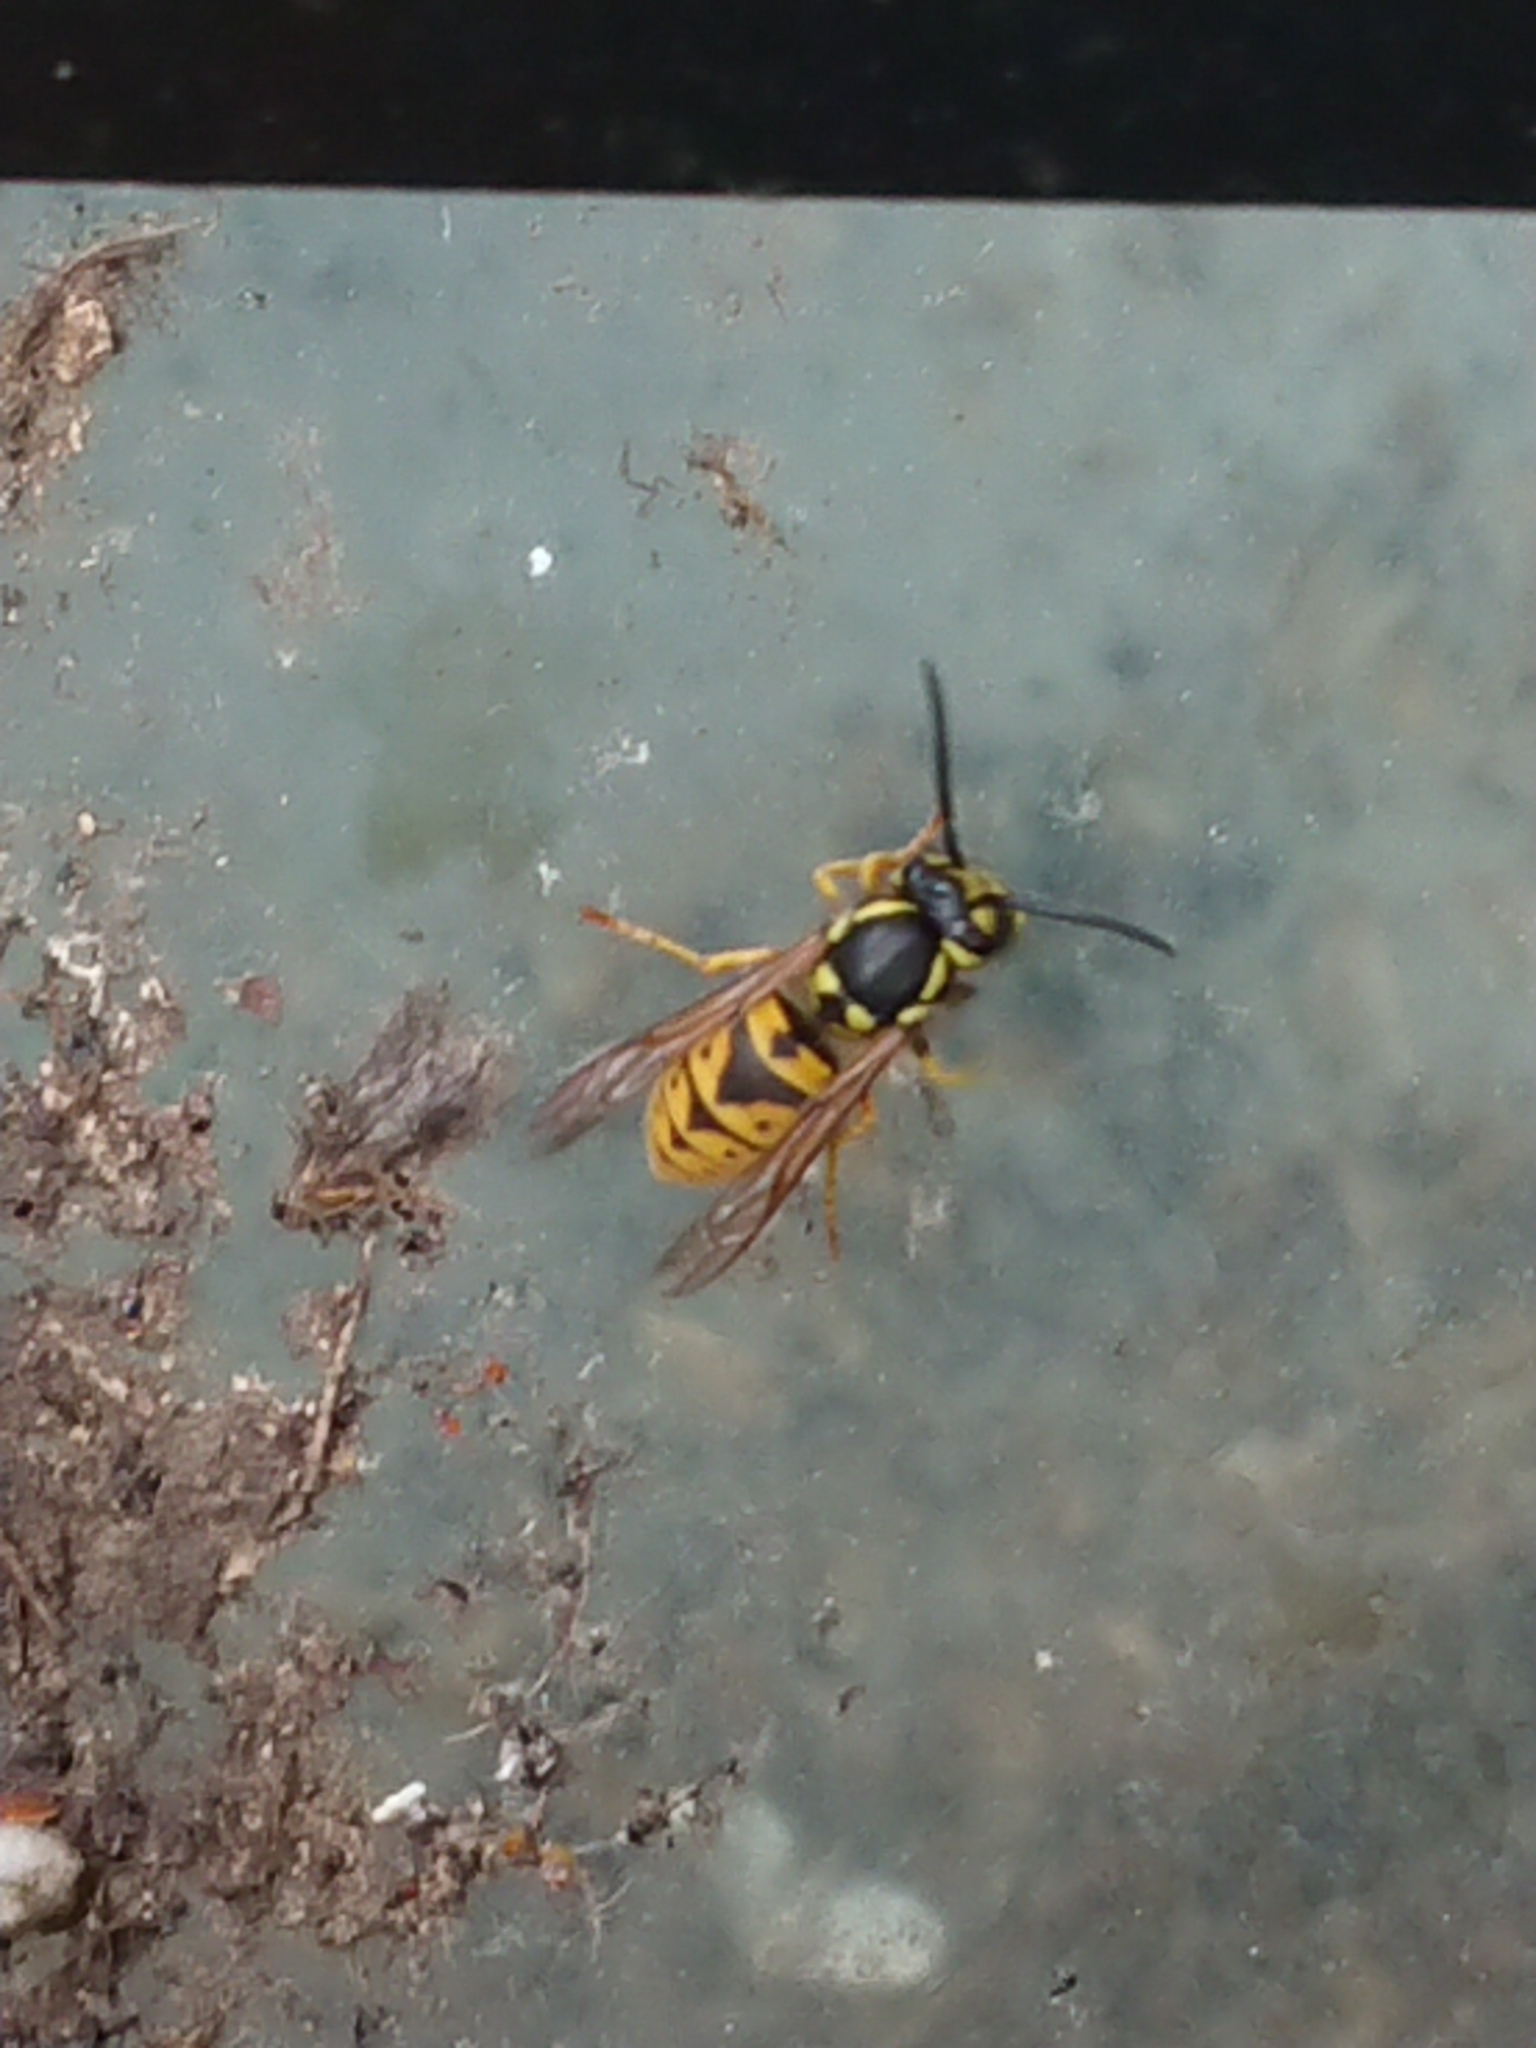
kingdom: Animalia
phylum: Arthropoda
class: Insecta
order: Hymenoptera
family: Vespidae
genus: Vespula
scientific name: Vespula germanica
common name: German wasp
